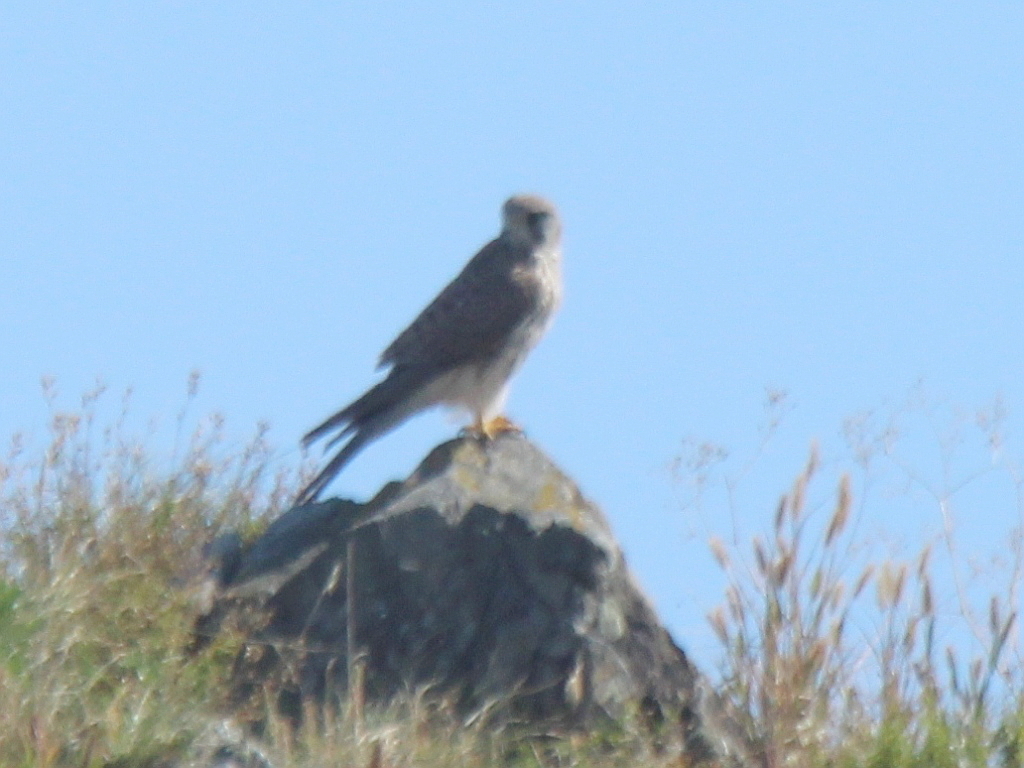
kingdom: Animalia
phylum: Chordata
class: Aves
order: Falconiformes
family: Falconidae
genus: Falco
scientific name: Falco tinnunculus
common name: Common kestrel
